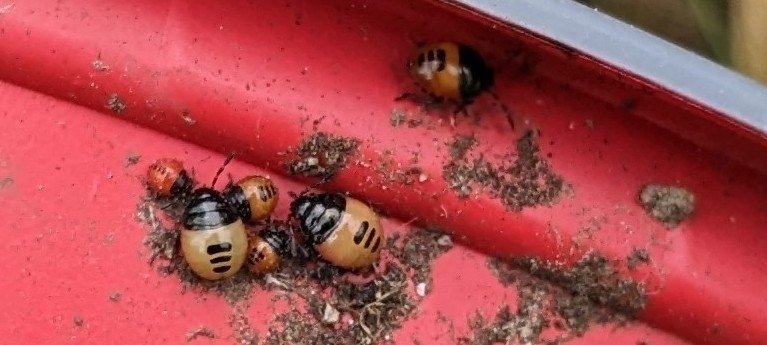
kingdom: Animalia
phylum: Arthropoda
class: Insecta
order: Hemiptera
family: Cydnidae
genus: Tritomegas
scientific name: Tritomegas bicolor
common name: Pied shieldbug
